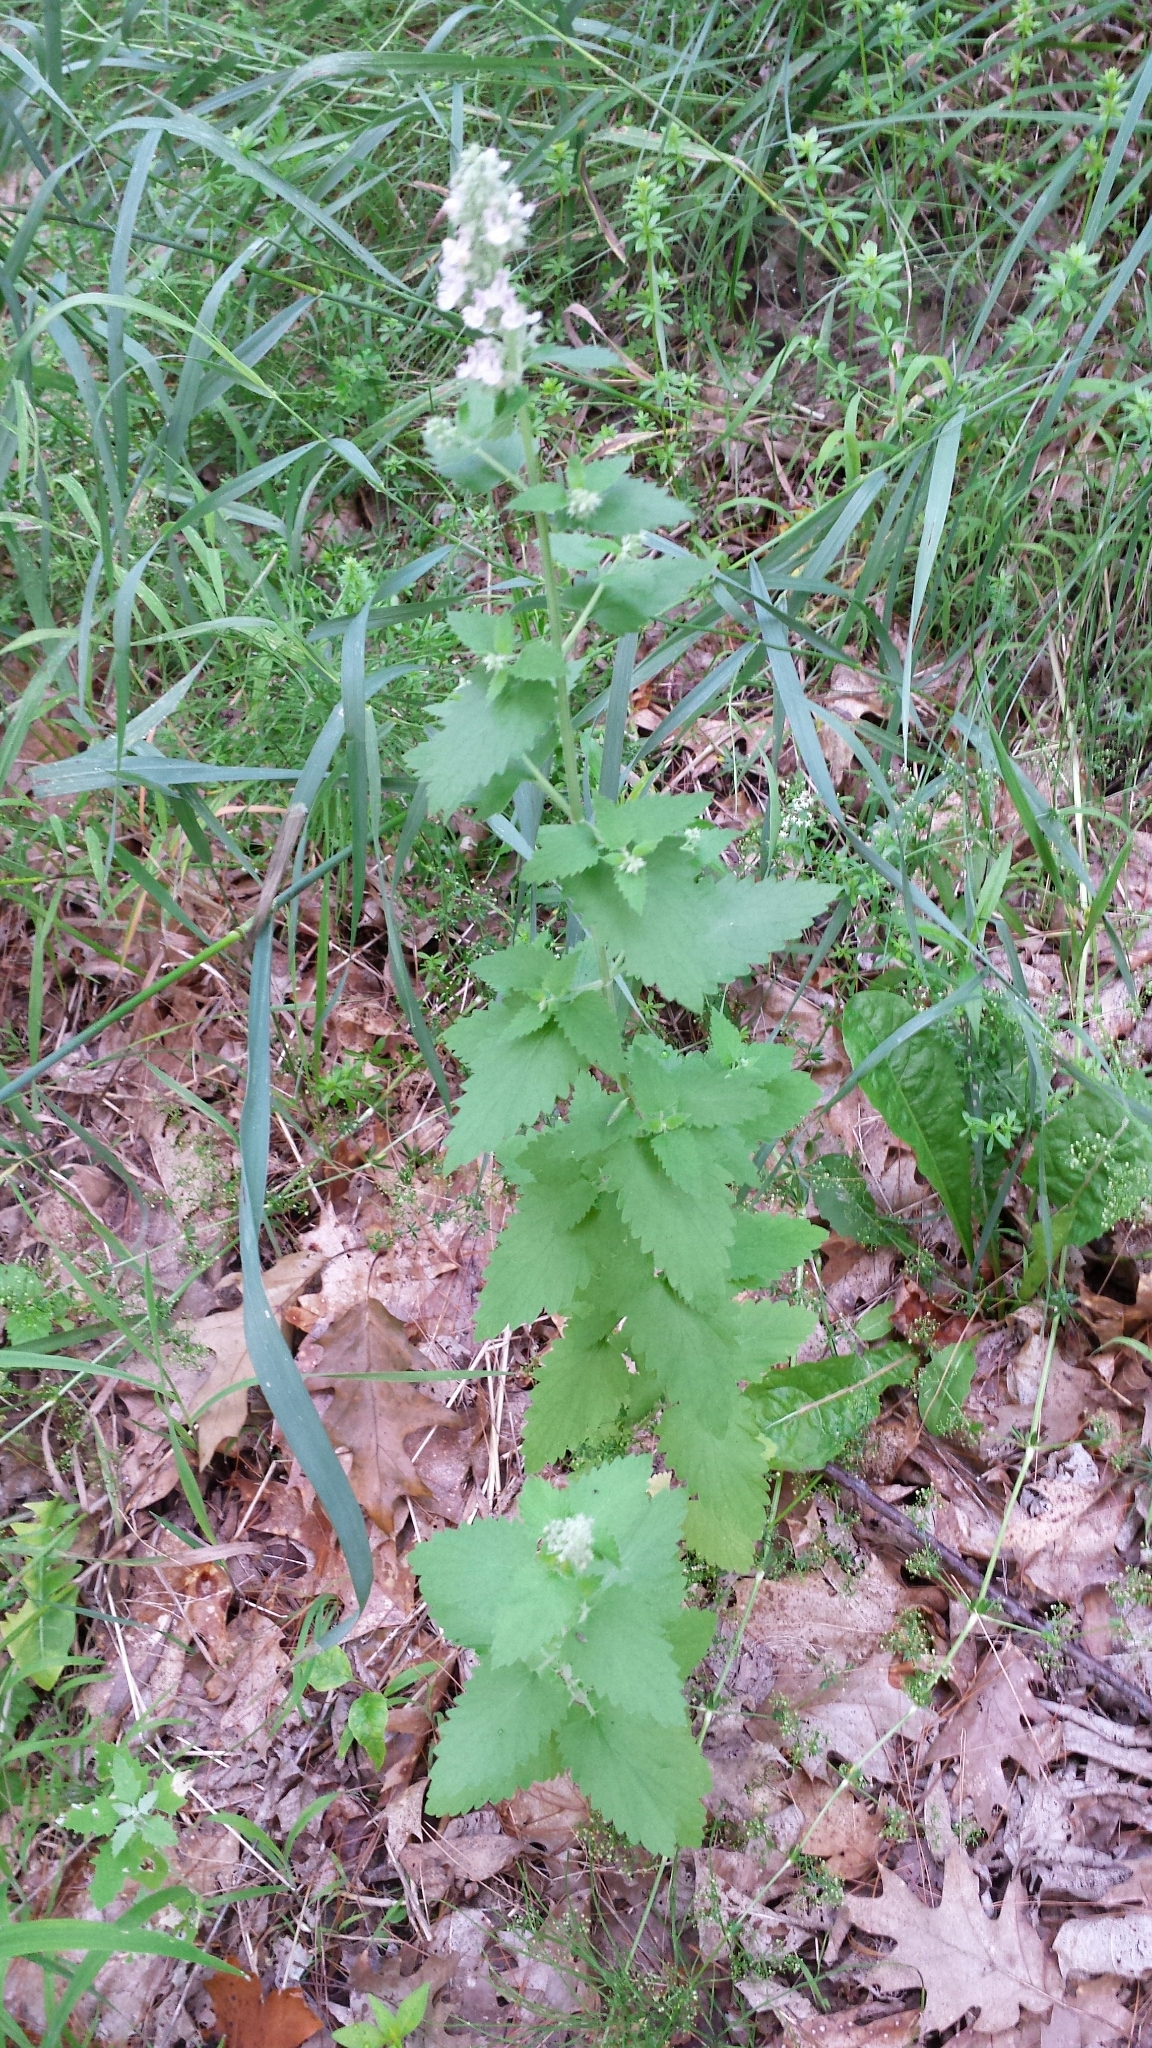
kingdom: Plantae
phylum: Tracheophyta
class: Magnoliopsida
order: Lamiales
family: Lamiaceae
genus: Nepeta
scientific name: Nepeta cataria
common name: Catnip
